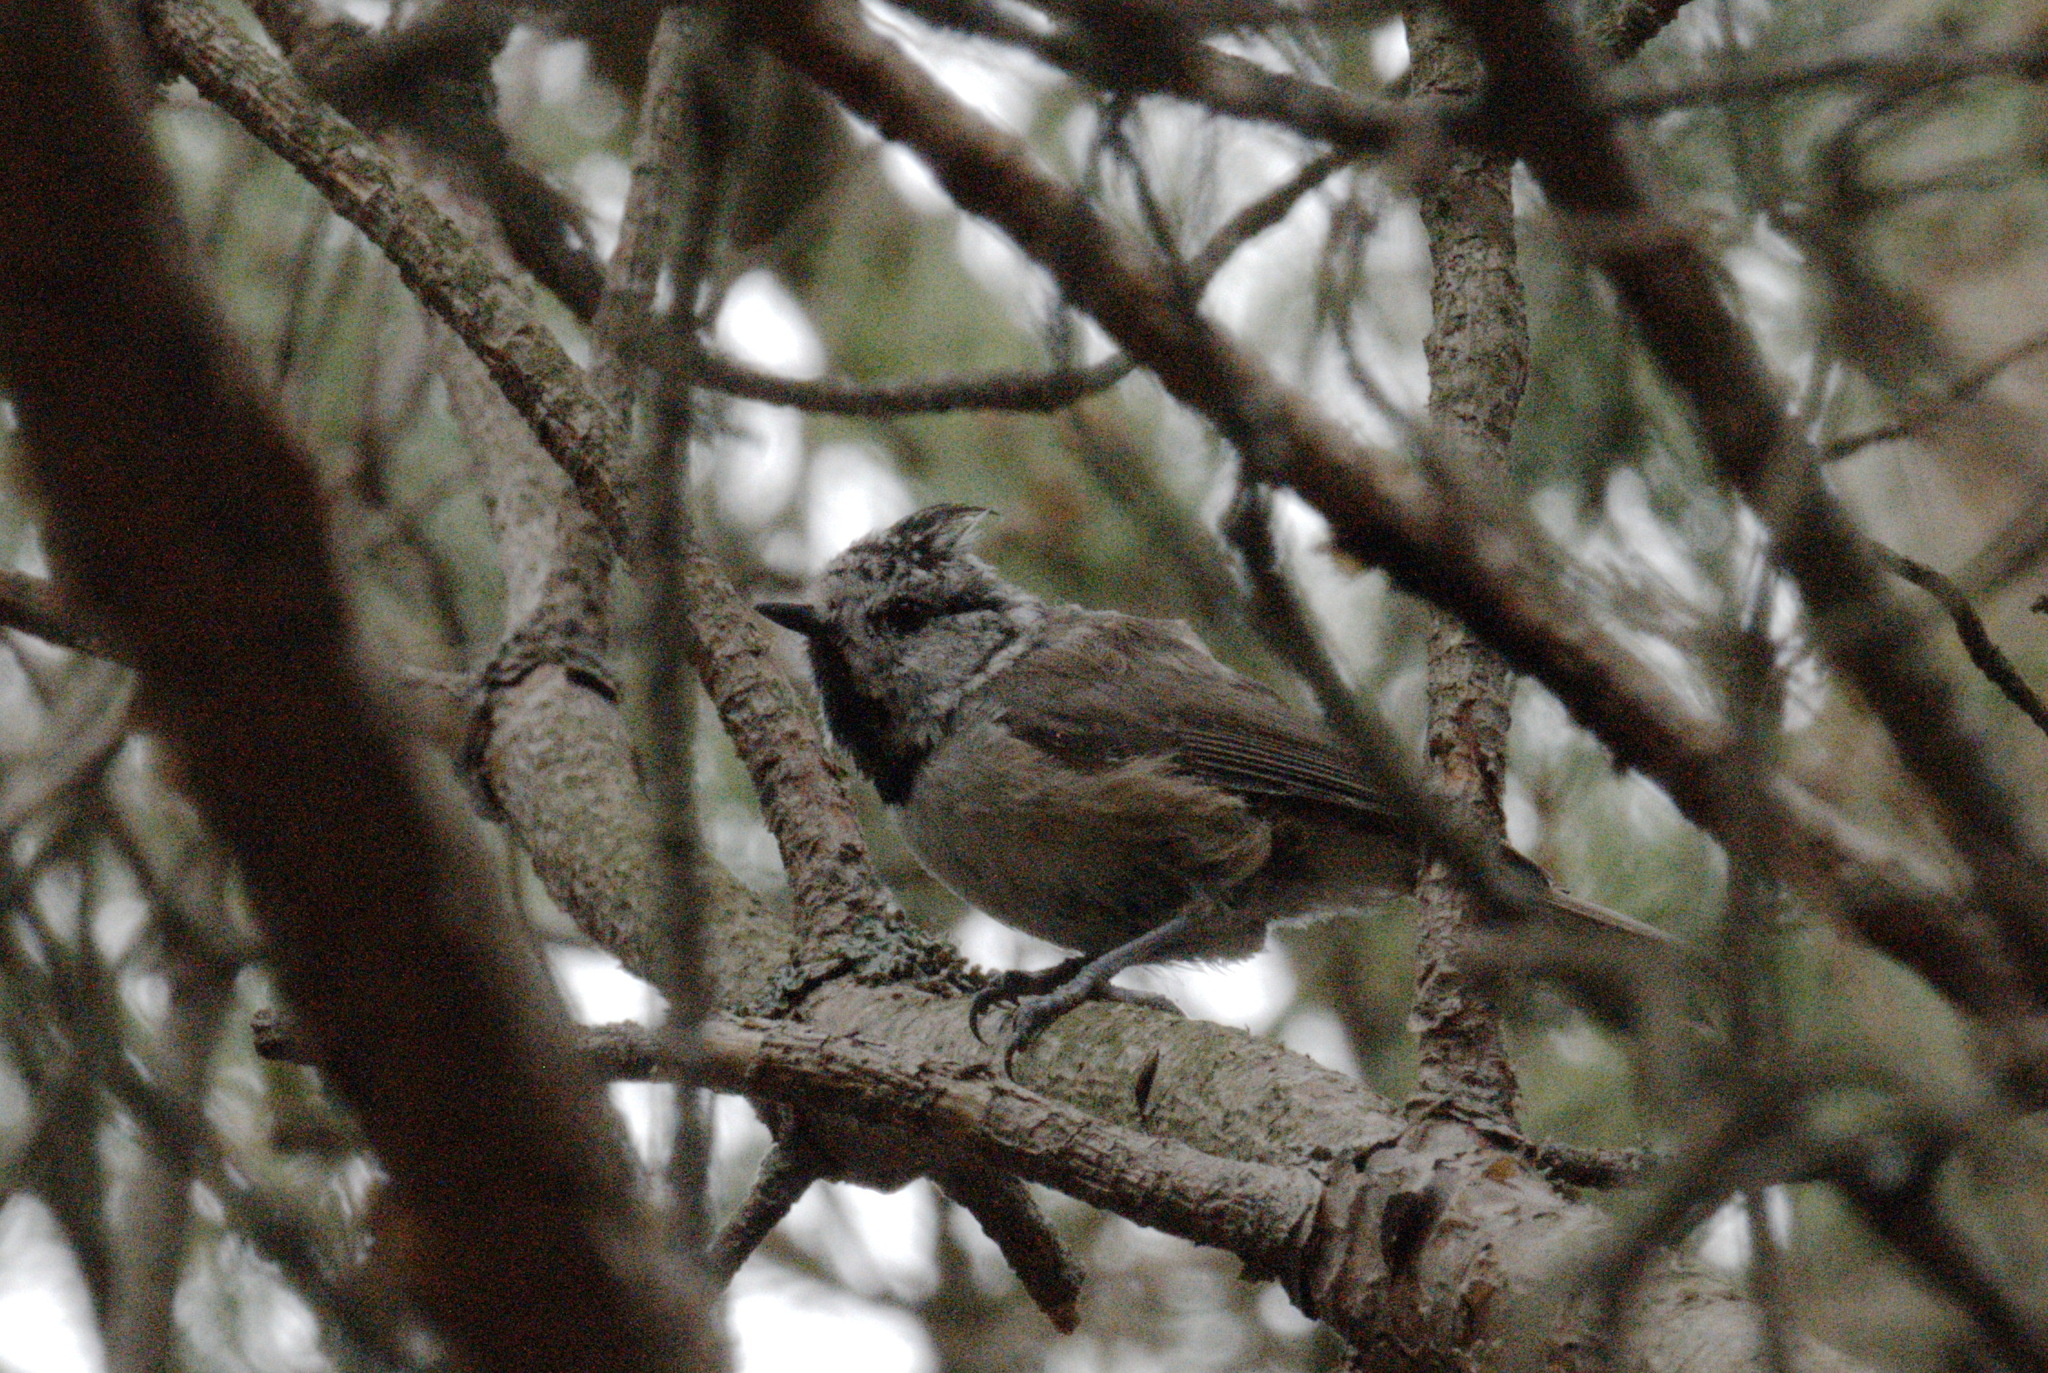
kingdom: Animalia
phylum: Chordata
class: Aves
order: Passeriformes
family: Paridae
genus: Lophophanes
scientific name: Lophophanes cristatus
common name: European crested tit
